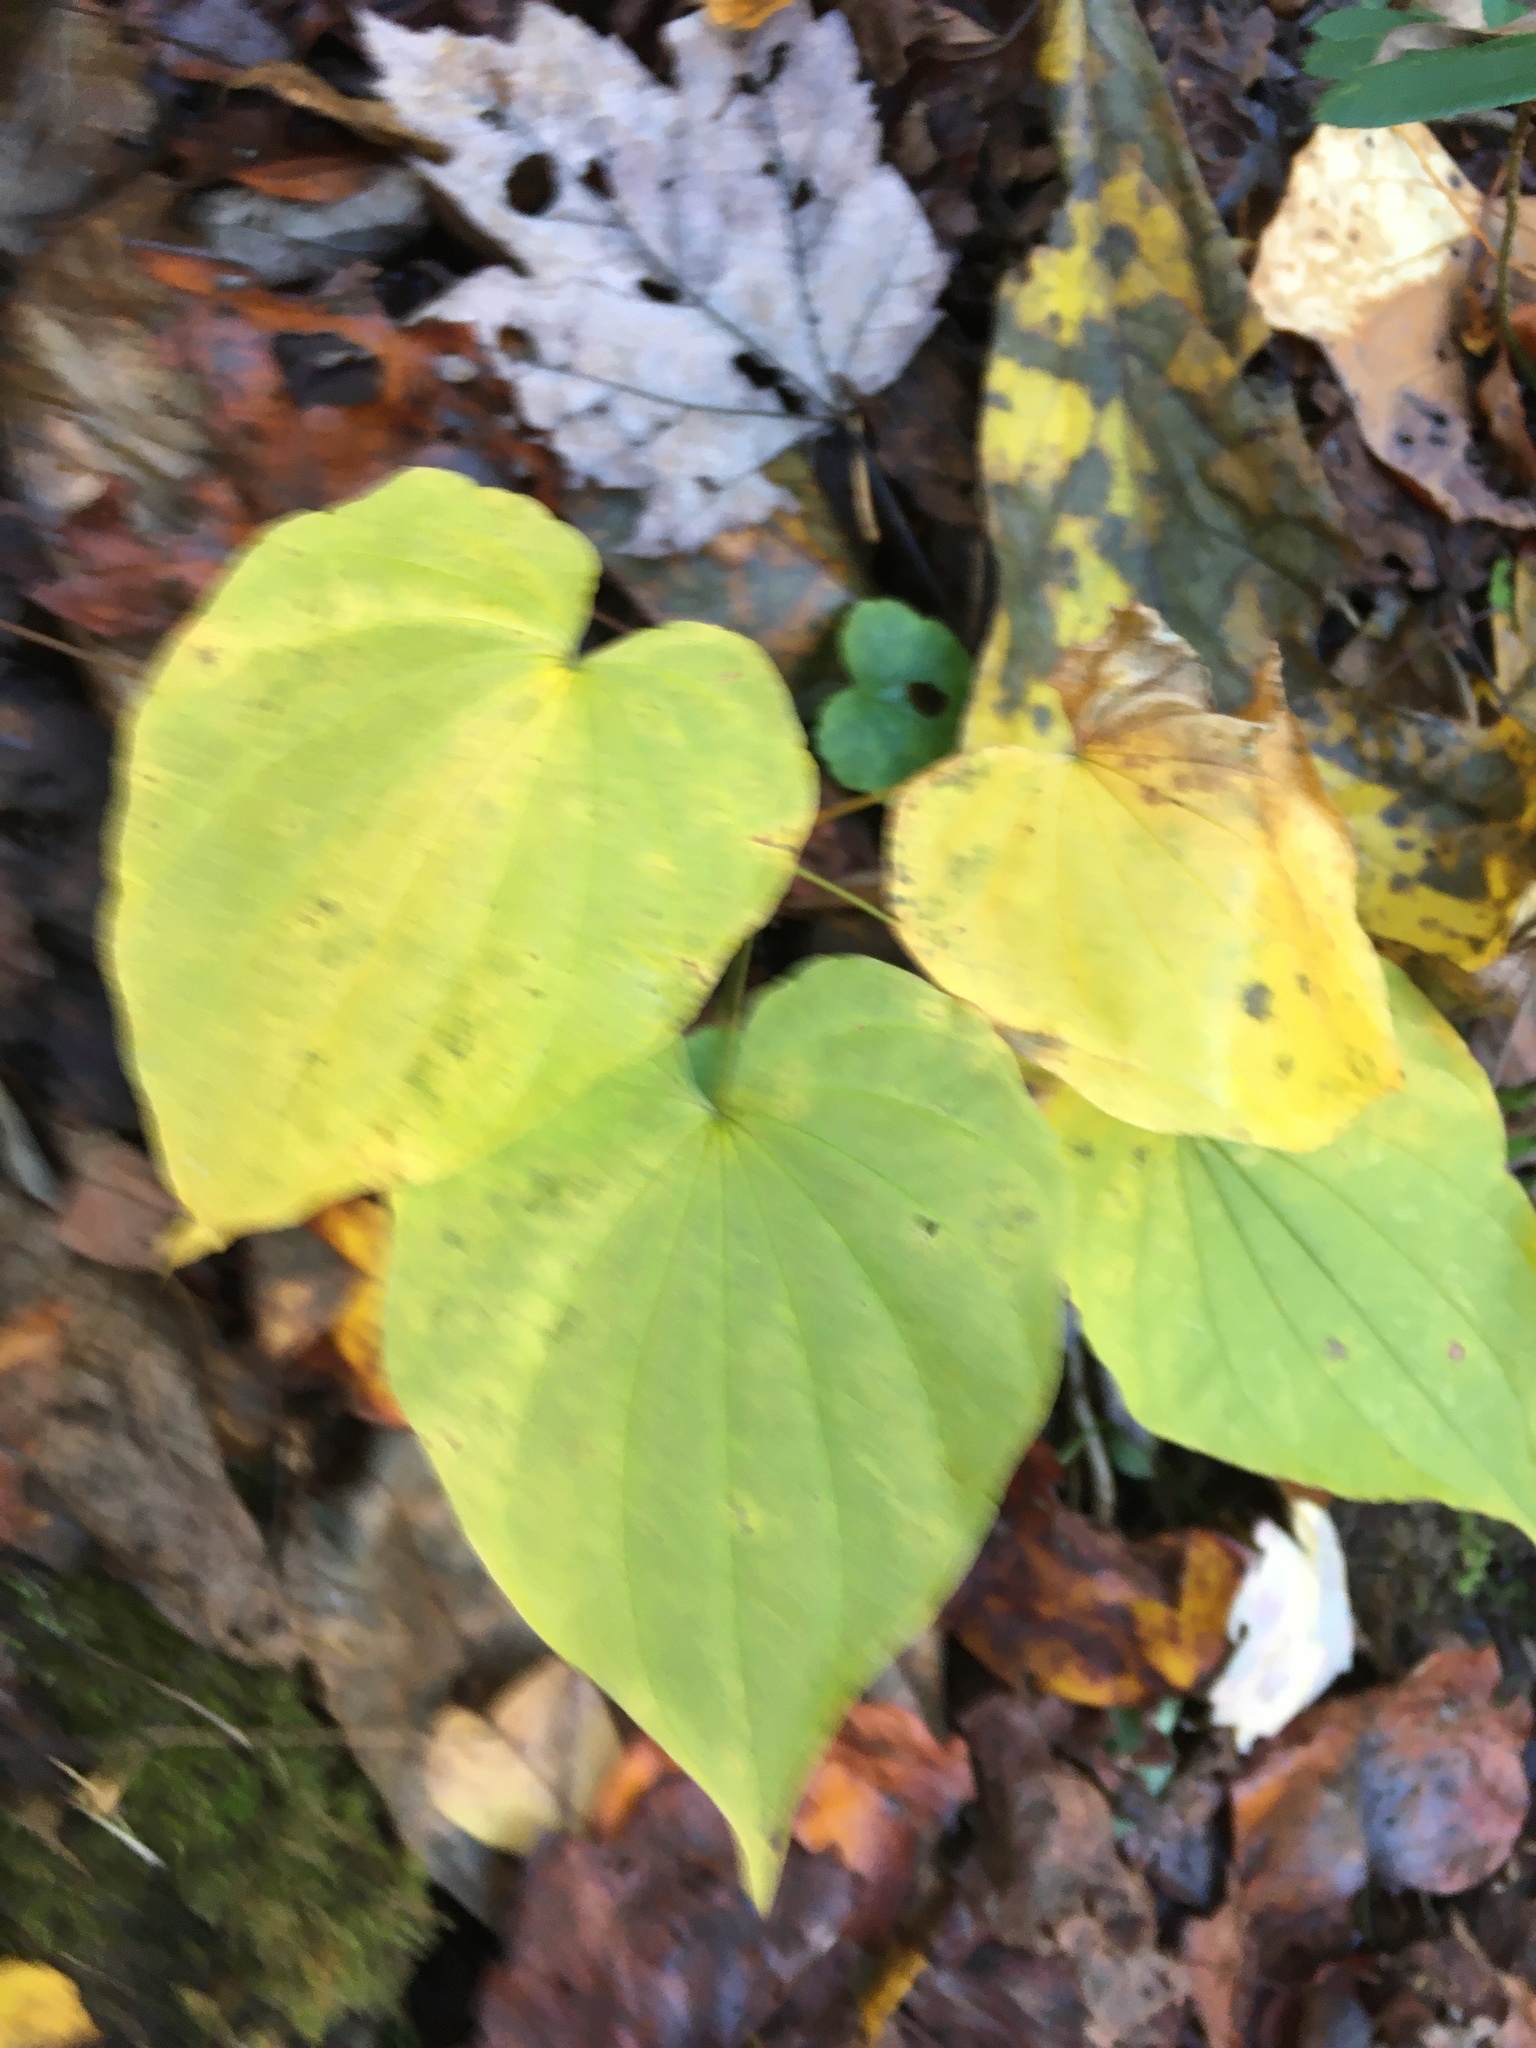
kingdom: Plantae
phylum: Tracheophyta
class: Liliopsida
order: Dioscoreales
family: Dioscoreaceae
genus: Dioscorea
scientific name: Dioscorea villosa
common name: Wild yam
